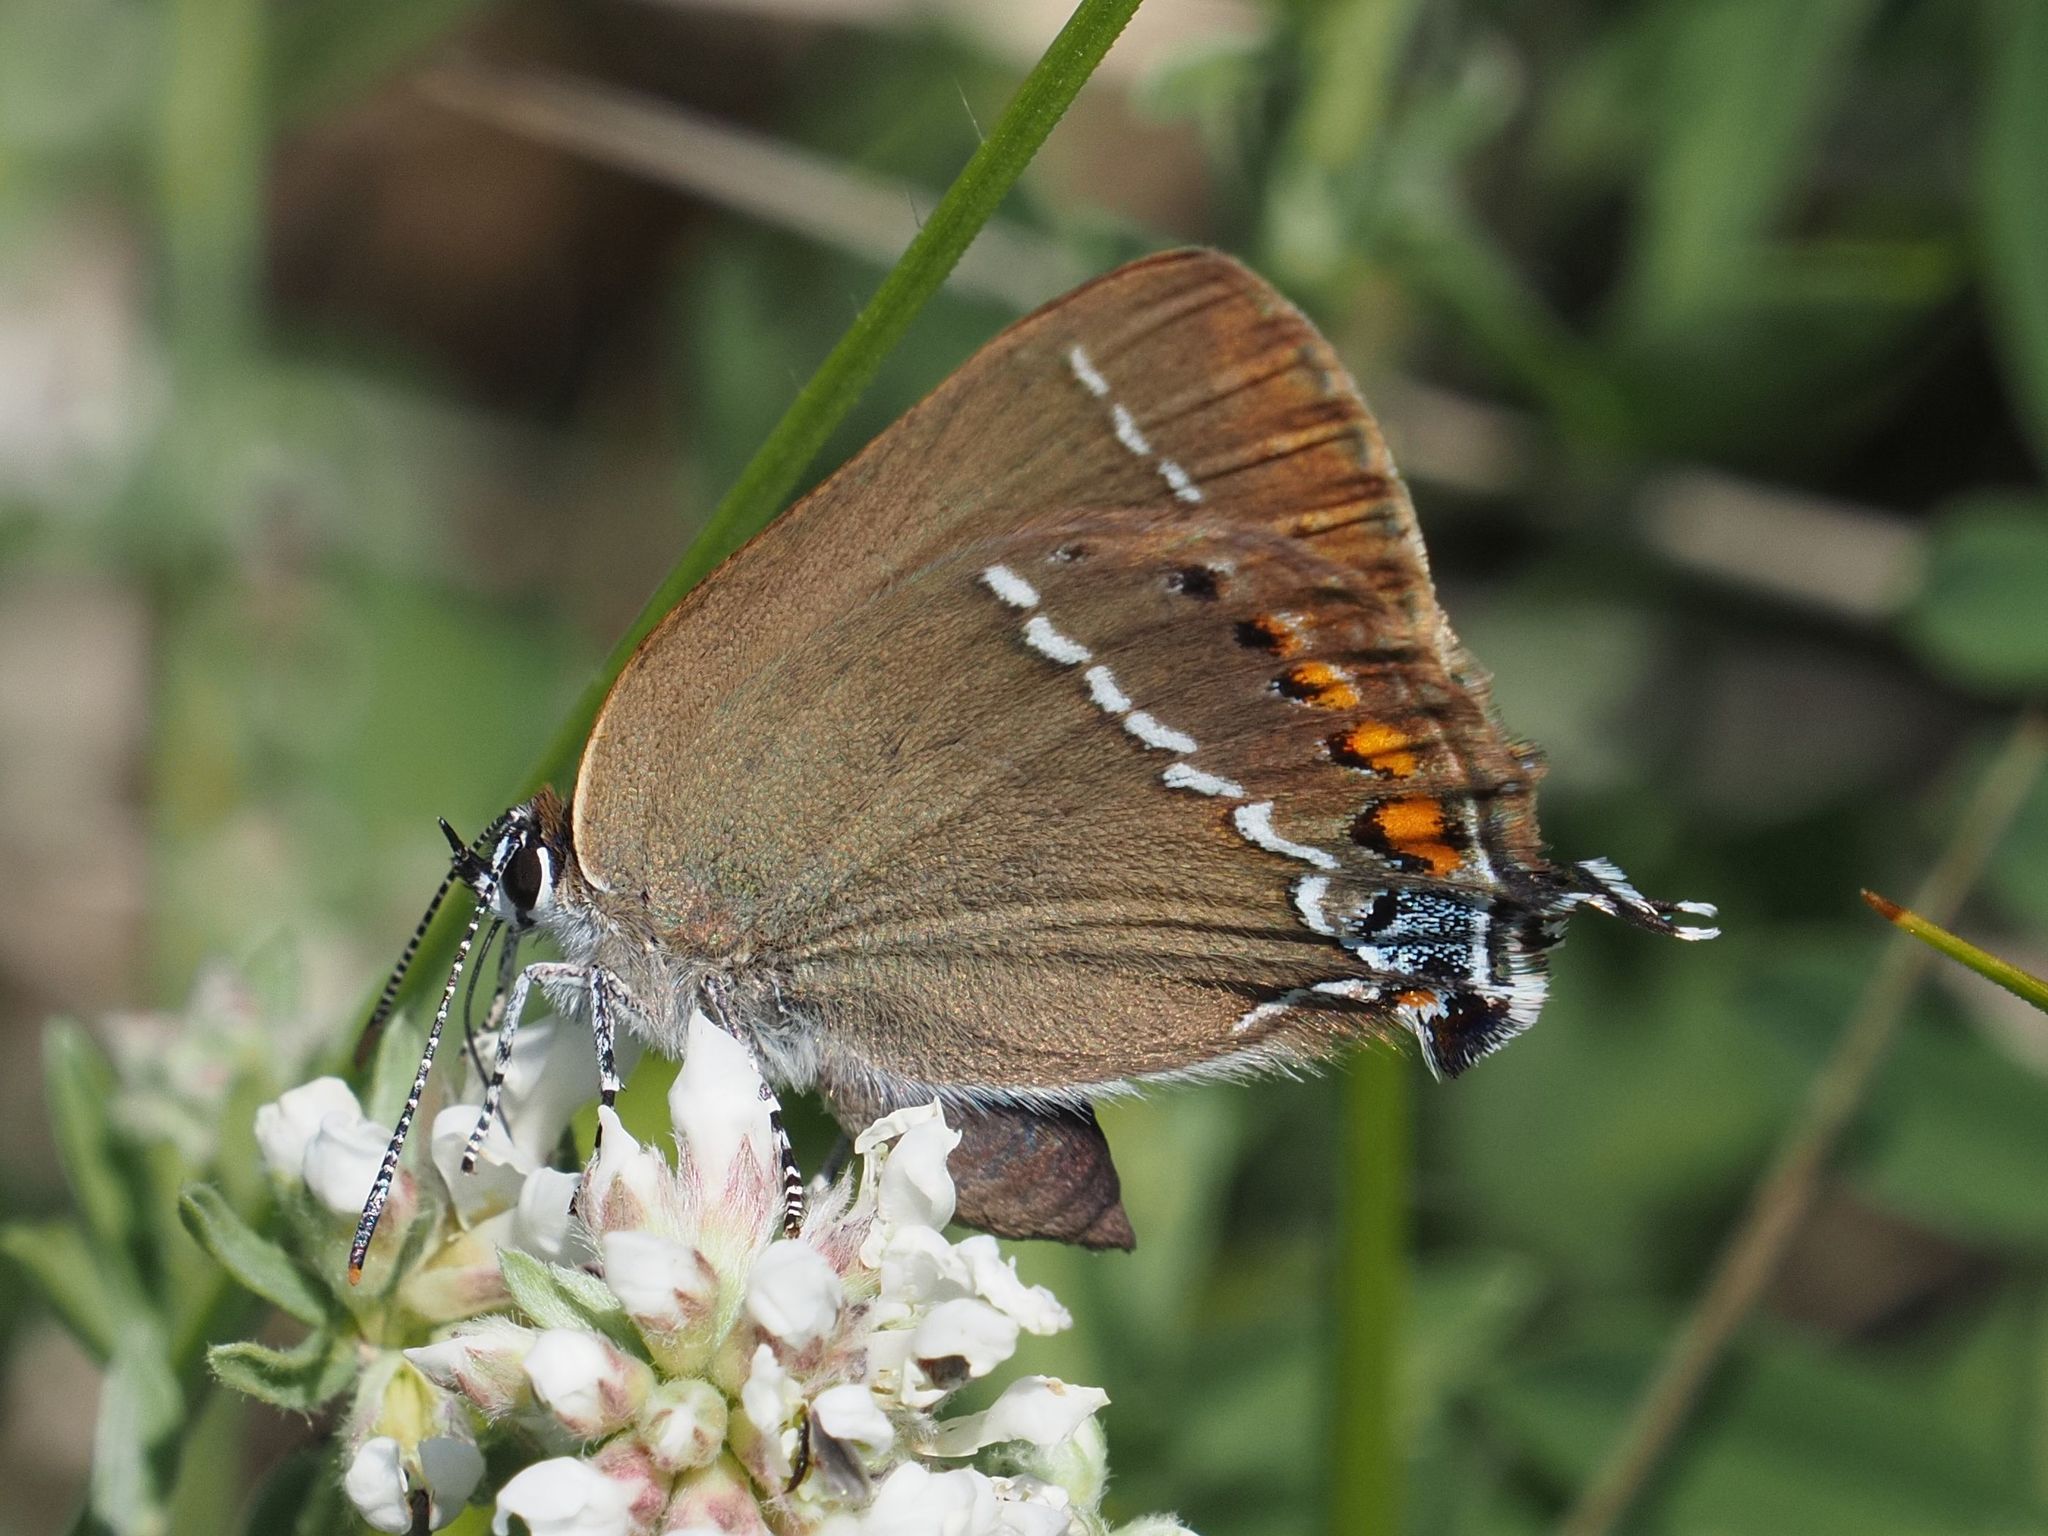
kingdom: Animalia
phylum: Arthropoda
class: Insecta
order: Lepidoptera
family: Lycaenidae
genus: Tuttiola
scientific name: Tuttiola spini
